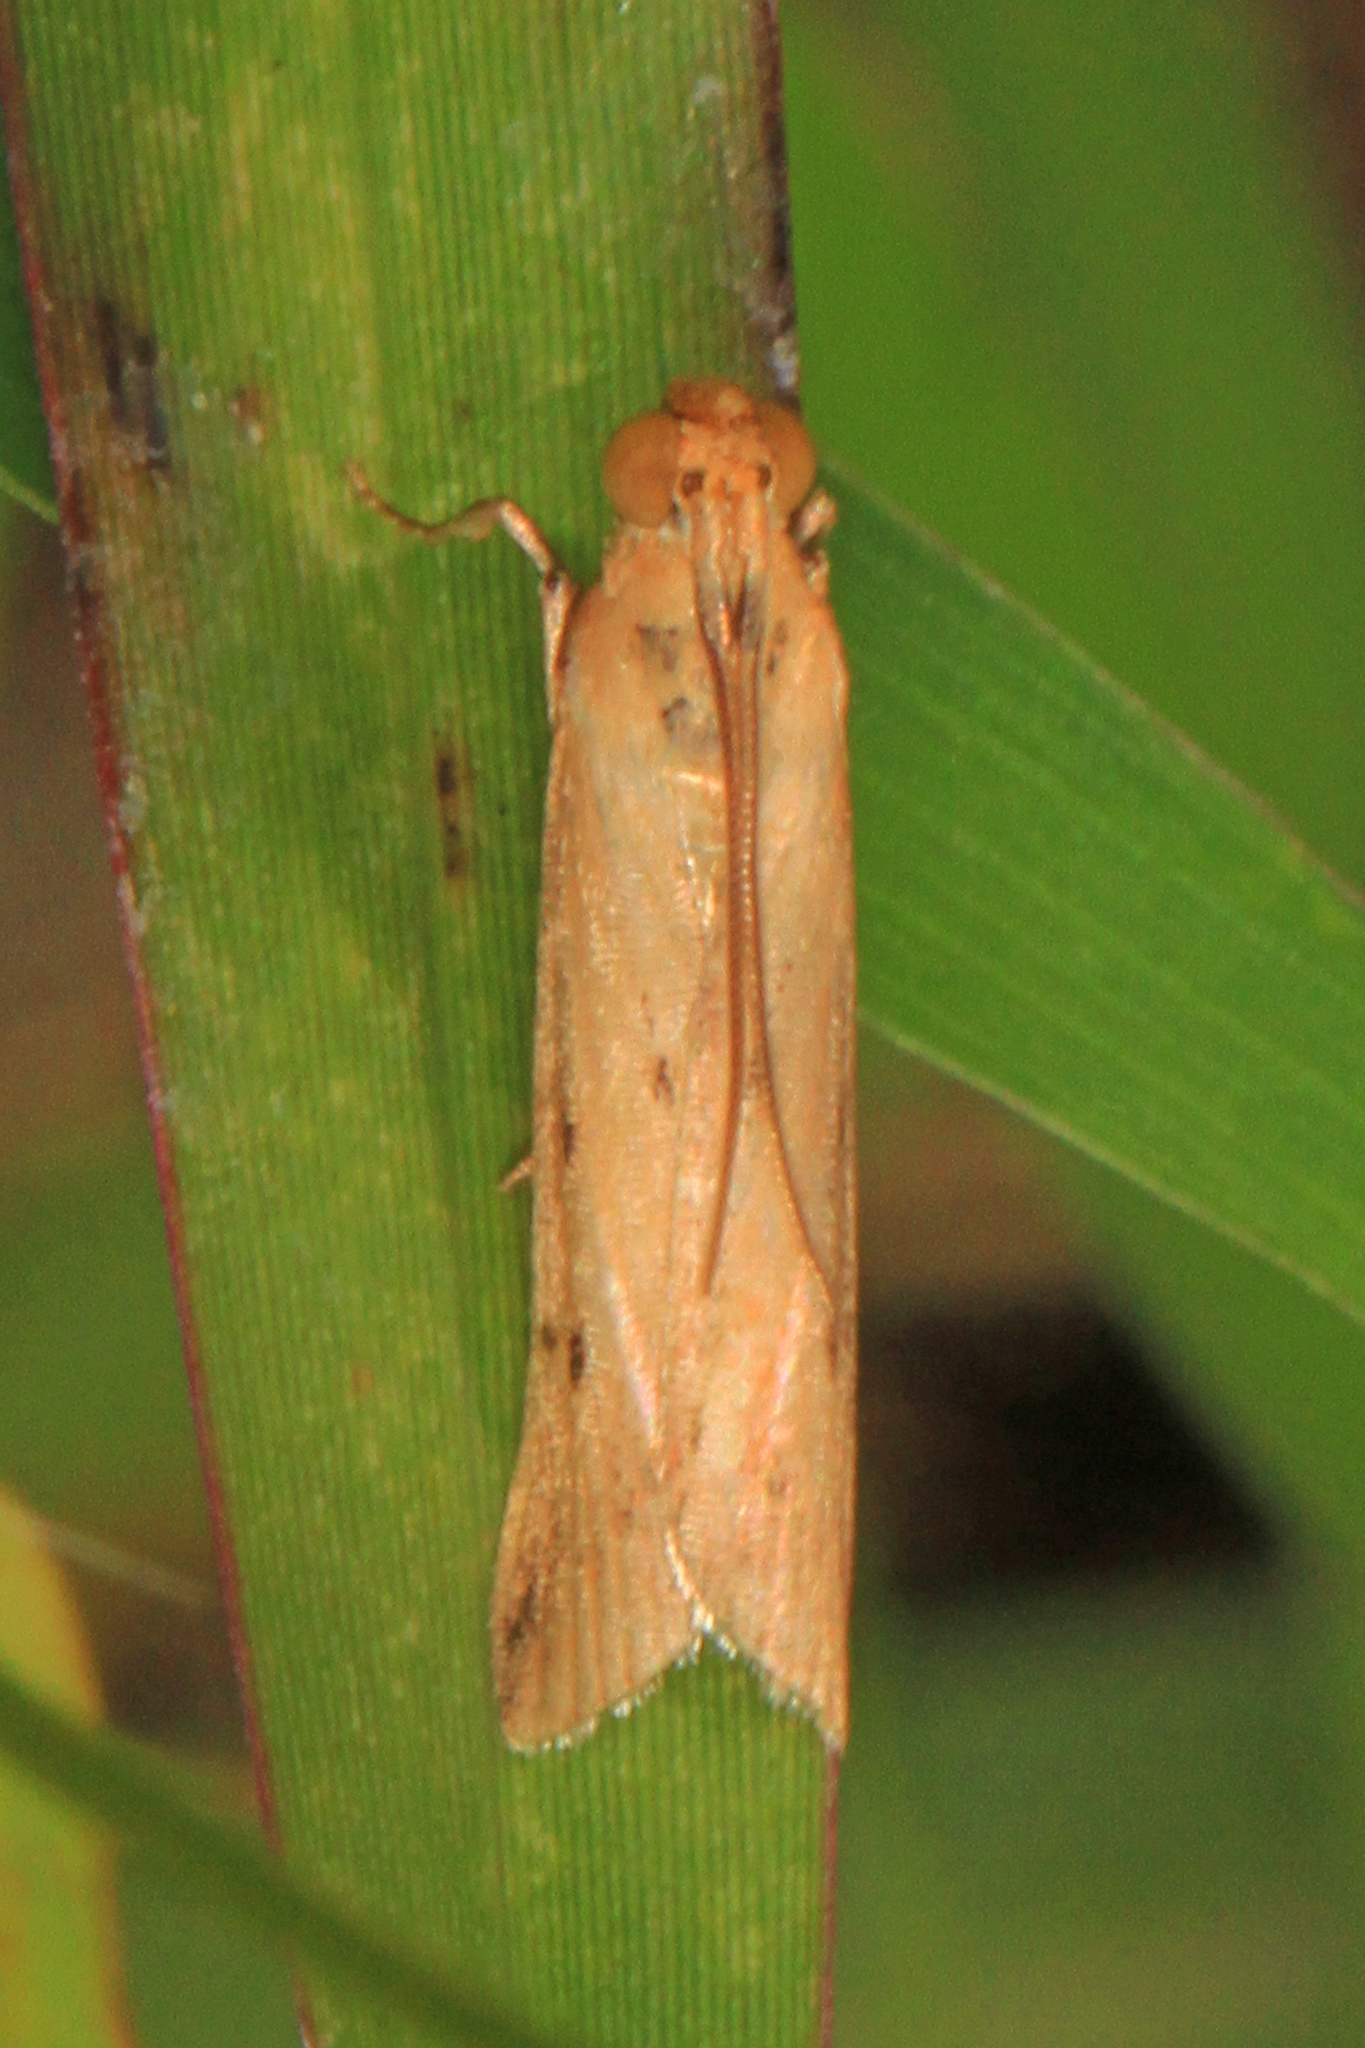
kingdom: Animalia
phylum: Arthropoda
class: Insecta
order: Lepidoptera
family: Pyralidae
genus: Ufa
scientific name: Ufa rubedinella
